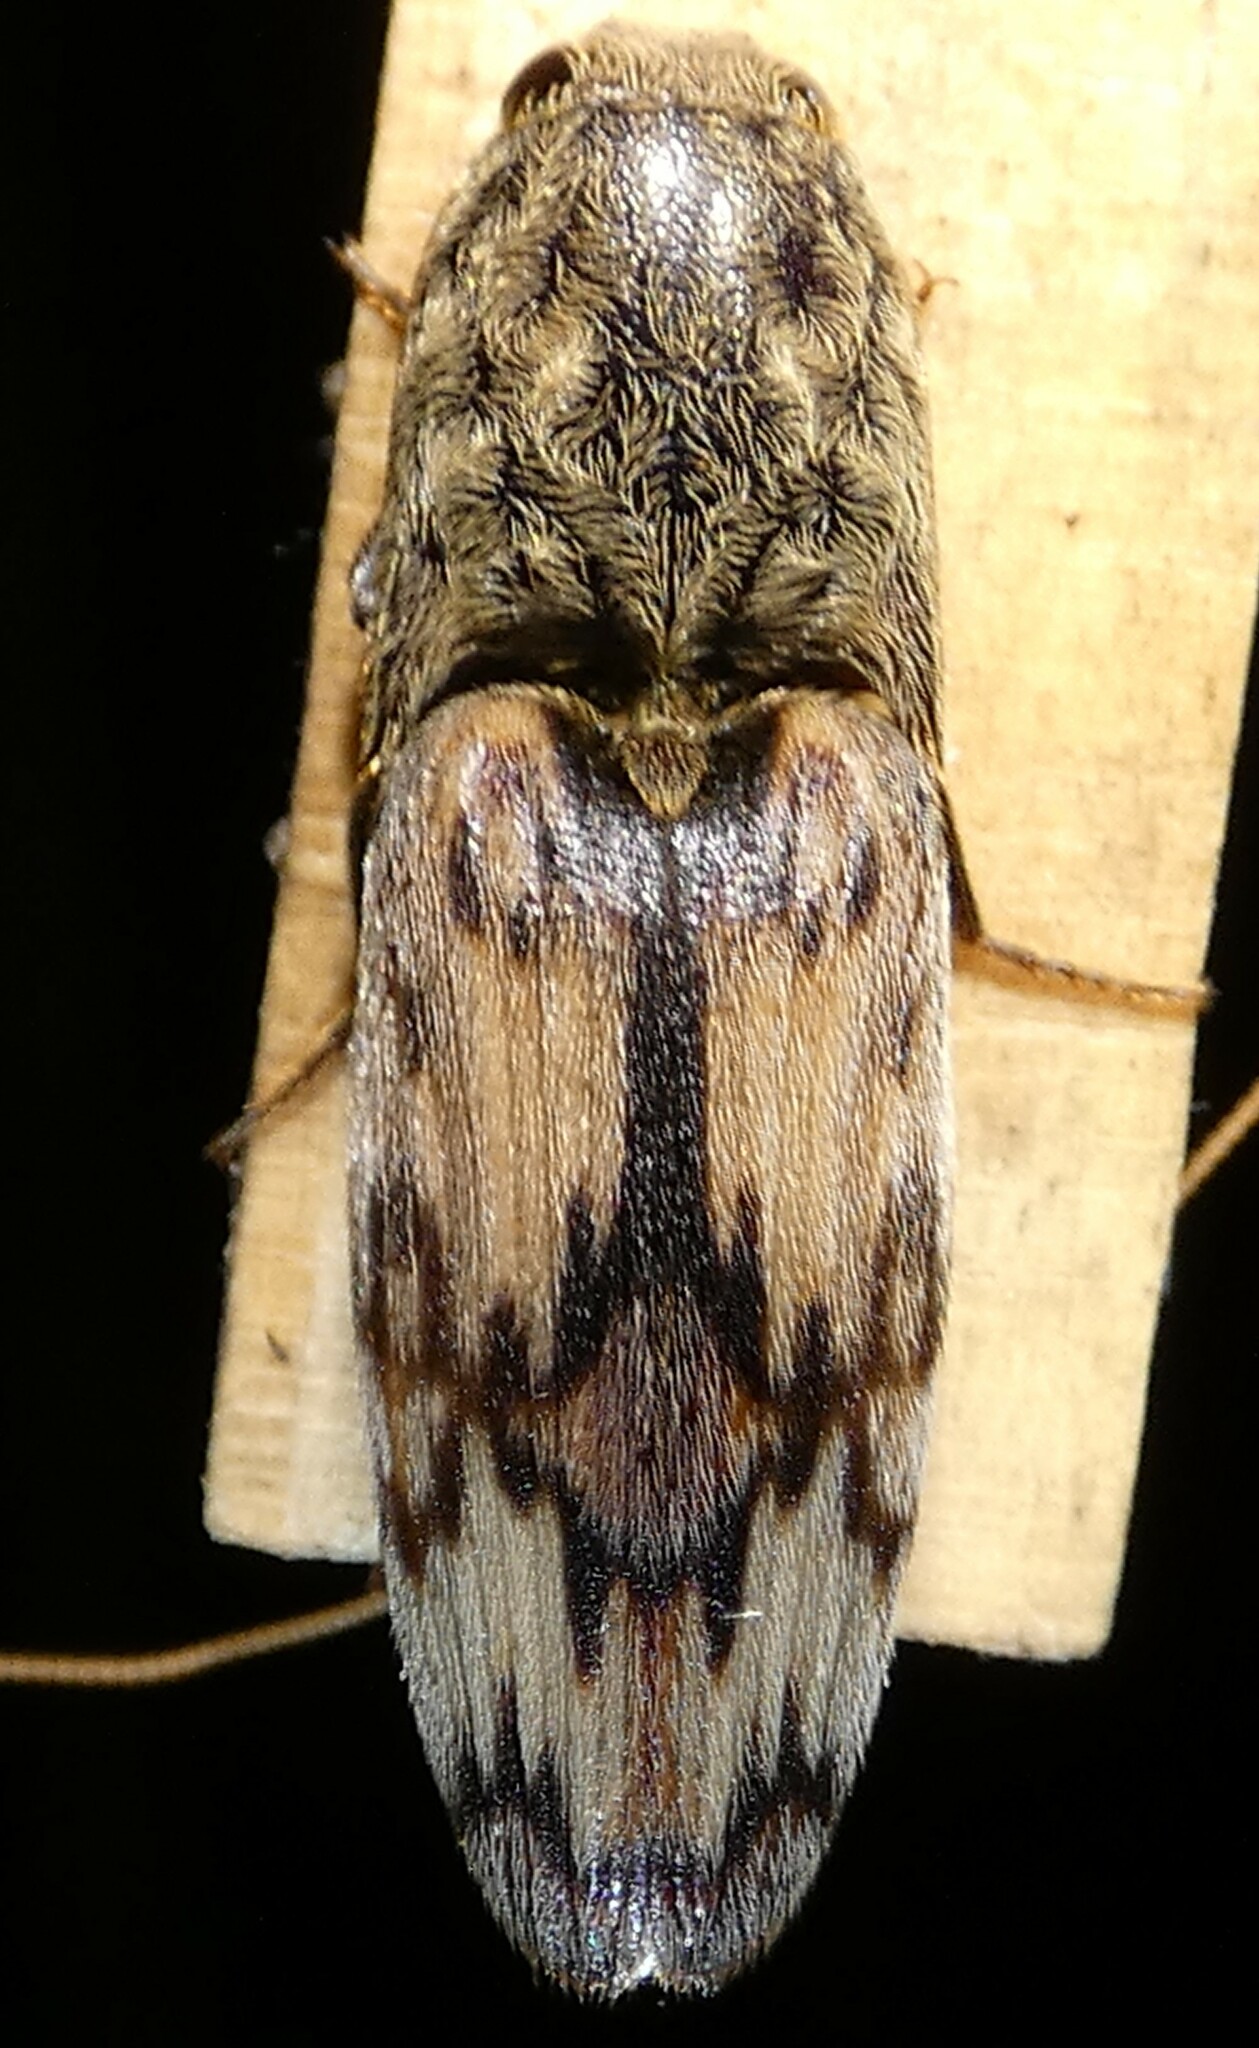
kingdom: Animalia
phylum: Arthropoda
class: Insecta
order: Coleoptera
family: Elateridae
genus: Pherhimius
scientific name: Pherhimius fascicularis
